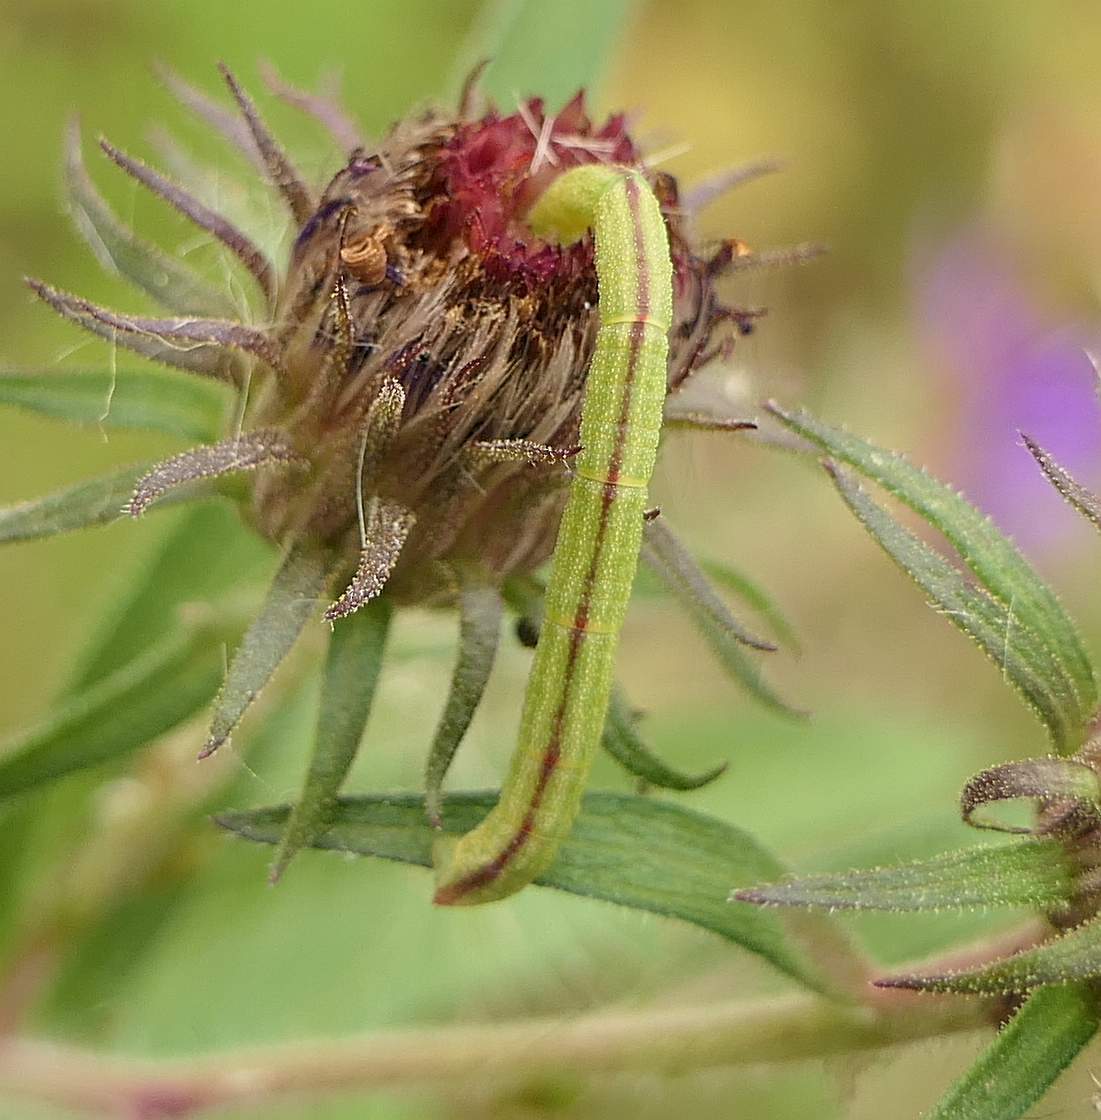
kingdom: Animalia
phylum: Arthropoda
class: Insecta
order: Lepidoptera
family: Geometridae
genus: Chlorochlamys
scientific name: Chlorochlamys chloroleucaria
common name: Blackberry looper
